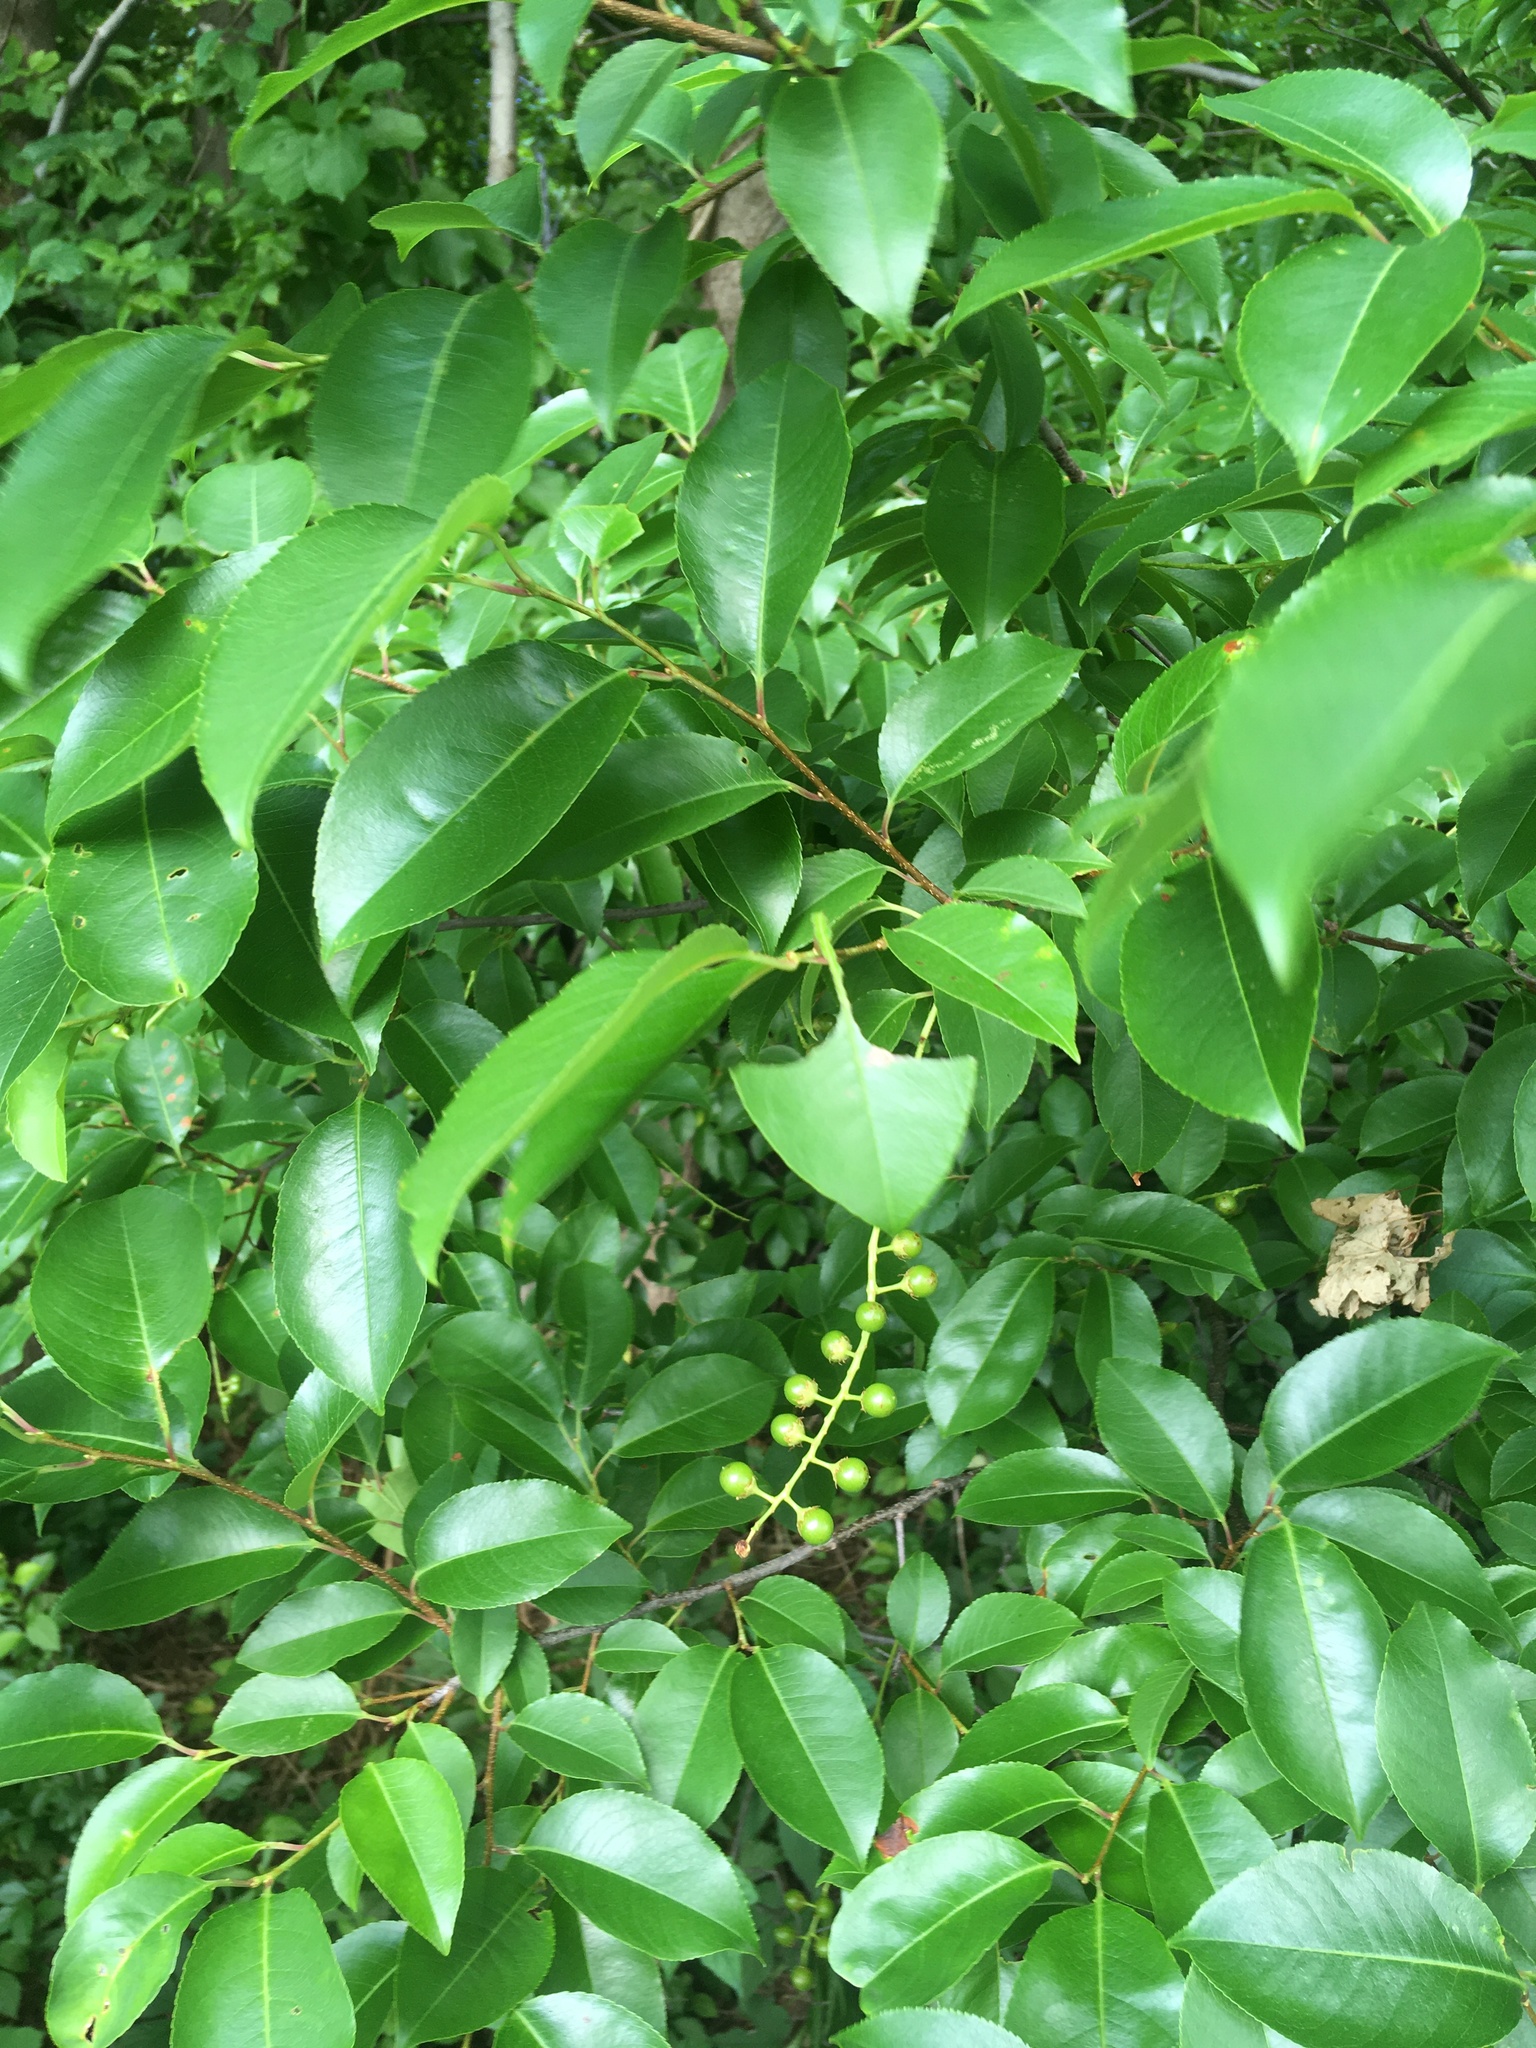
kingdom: Plantae
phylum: Tracheophyta
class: Magnoliopsida
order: Rosales
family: Rosaceae
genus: Prunus
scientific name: Prunus serotina
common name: Black cherry
